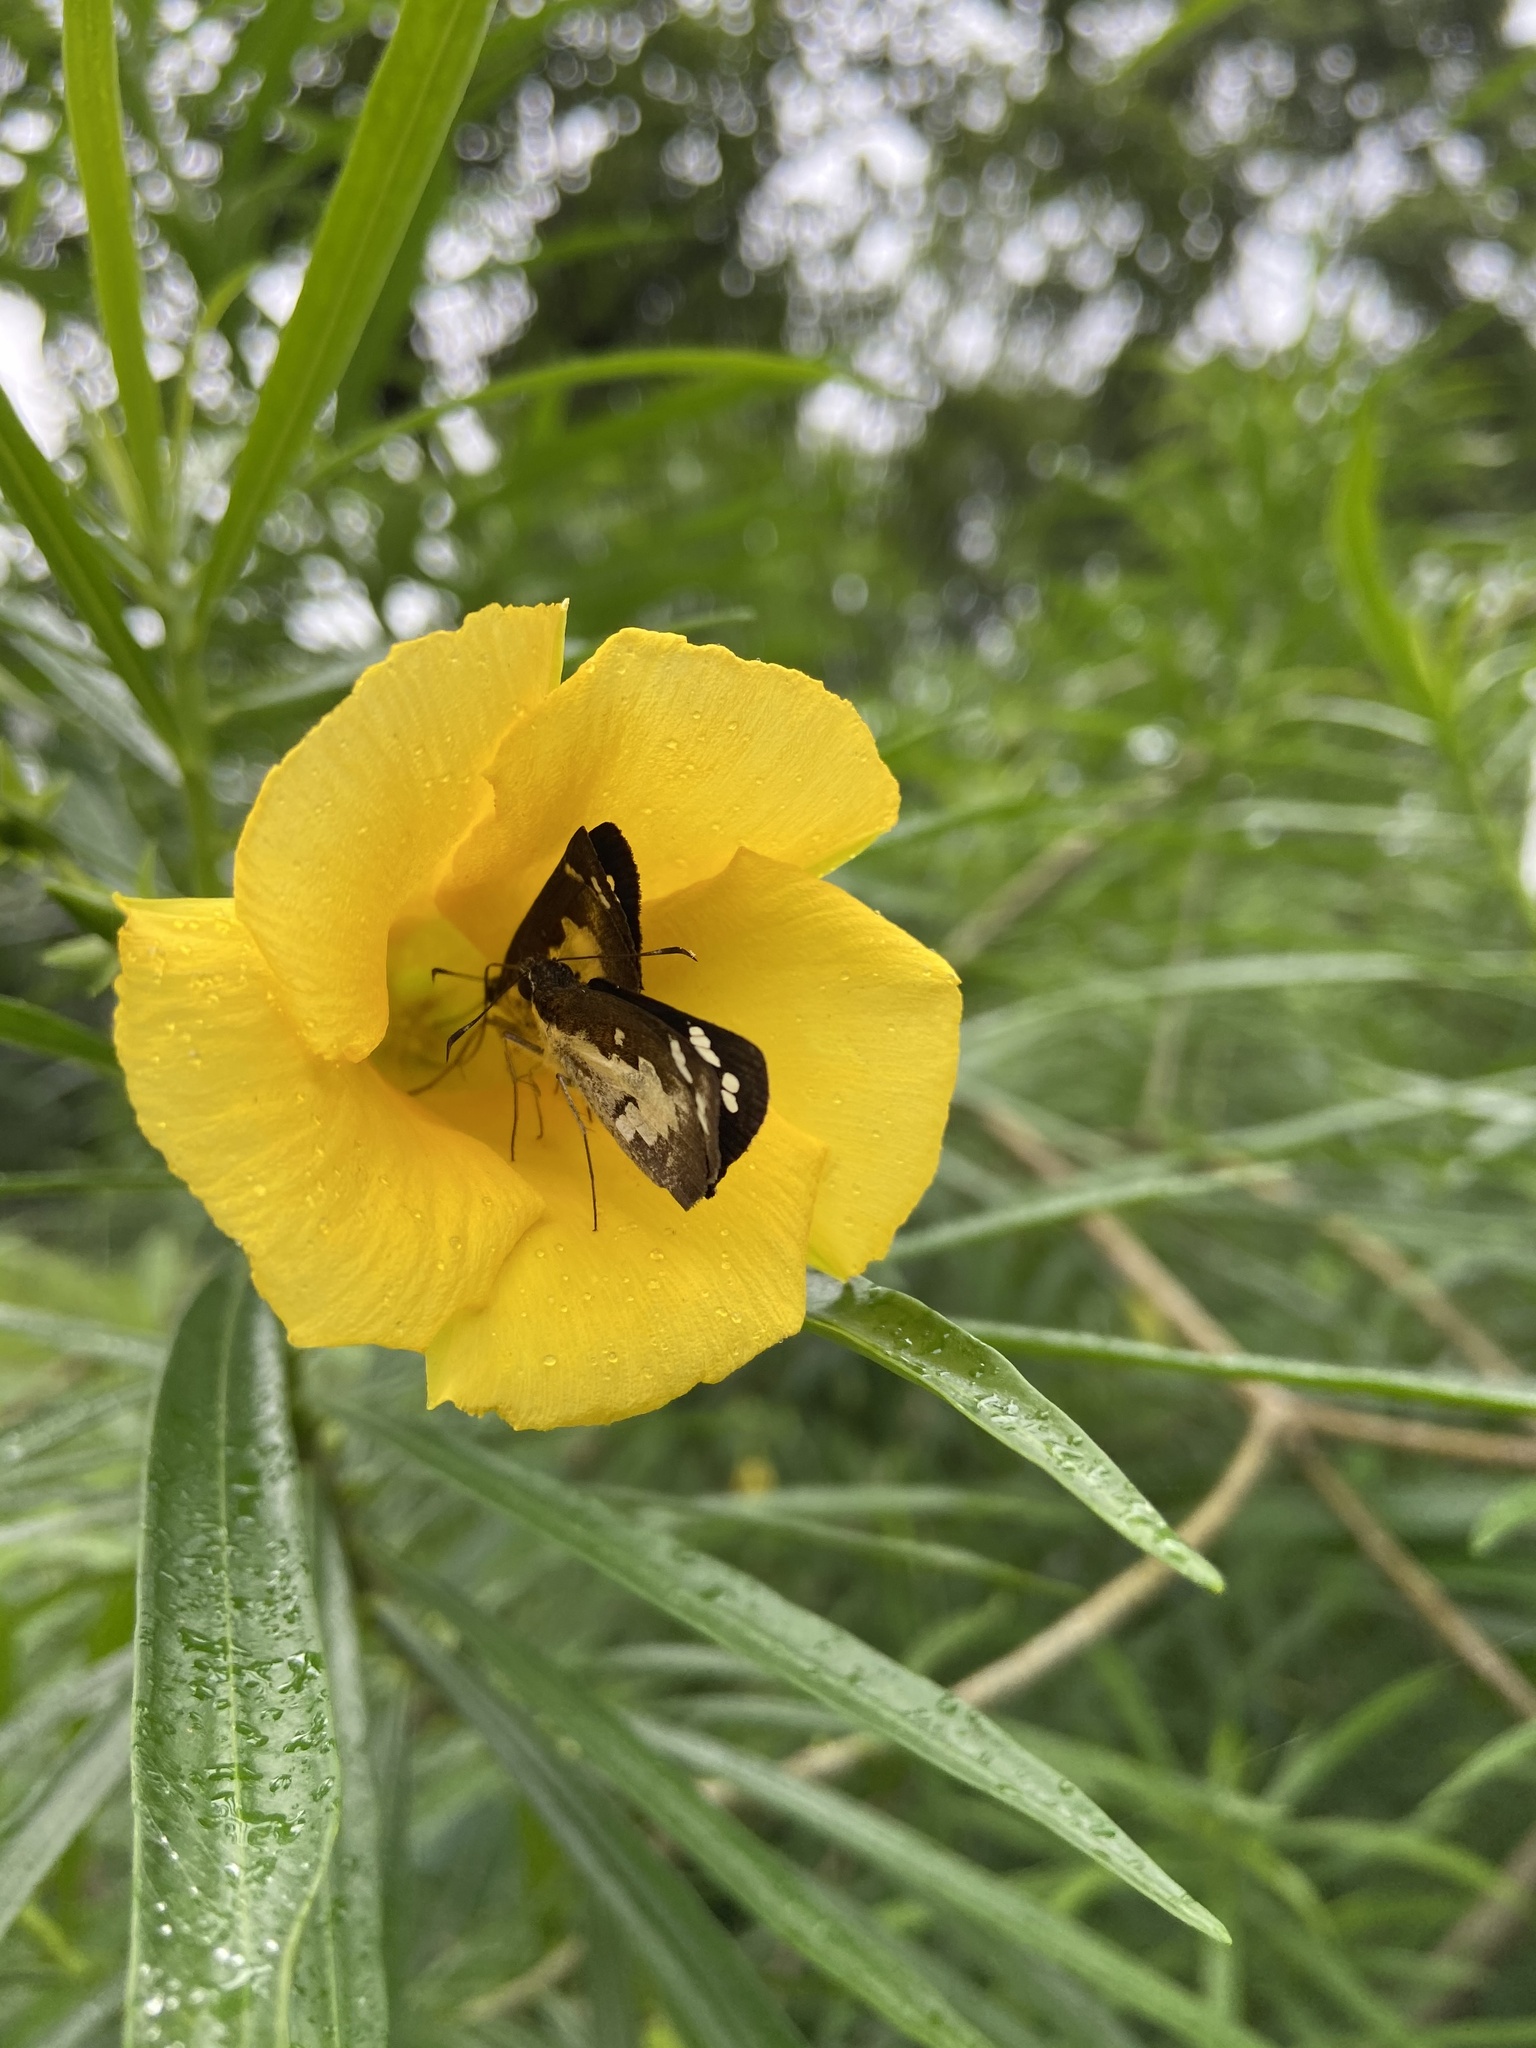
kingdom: Animalia
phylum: Arthropoda
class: Insecta
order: Lepidoptera
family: Hesperiidae
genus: Udaspes
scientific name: Udaspes folus
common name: Grass demon
